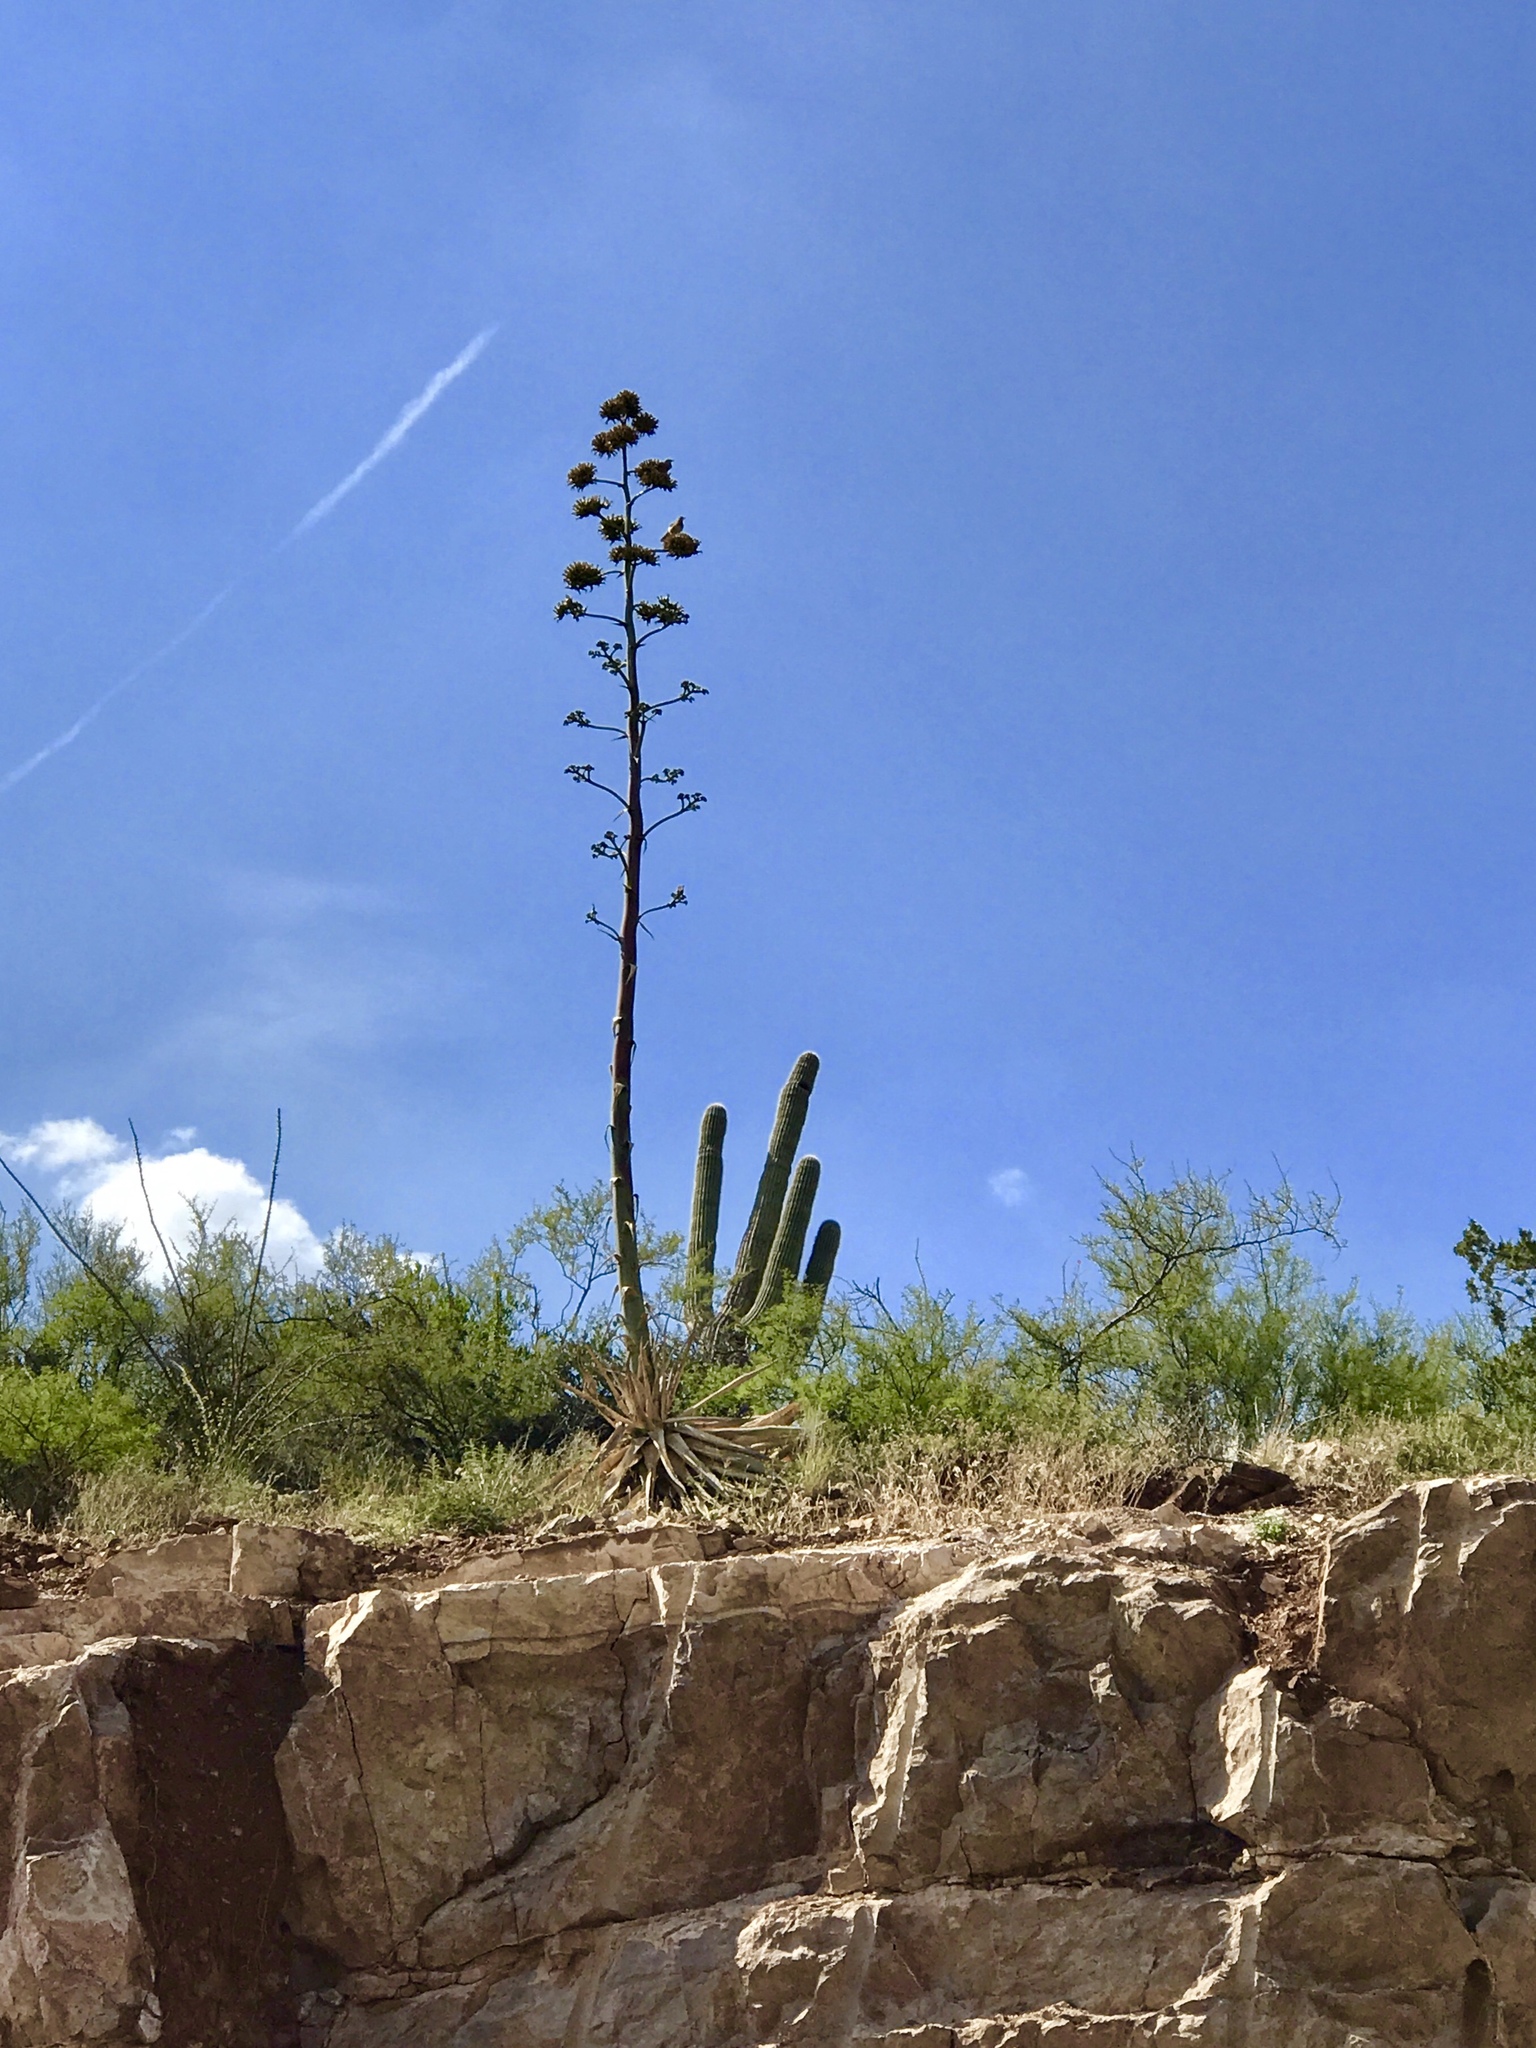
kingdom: Plantae
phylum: Tracheophyta
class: Liliopsida
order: Asparagales
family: Asparagaceae
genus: Agave
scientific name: Agave chrysantha
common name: Golden-flowered agave
